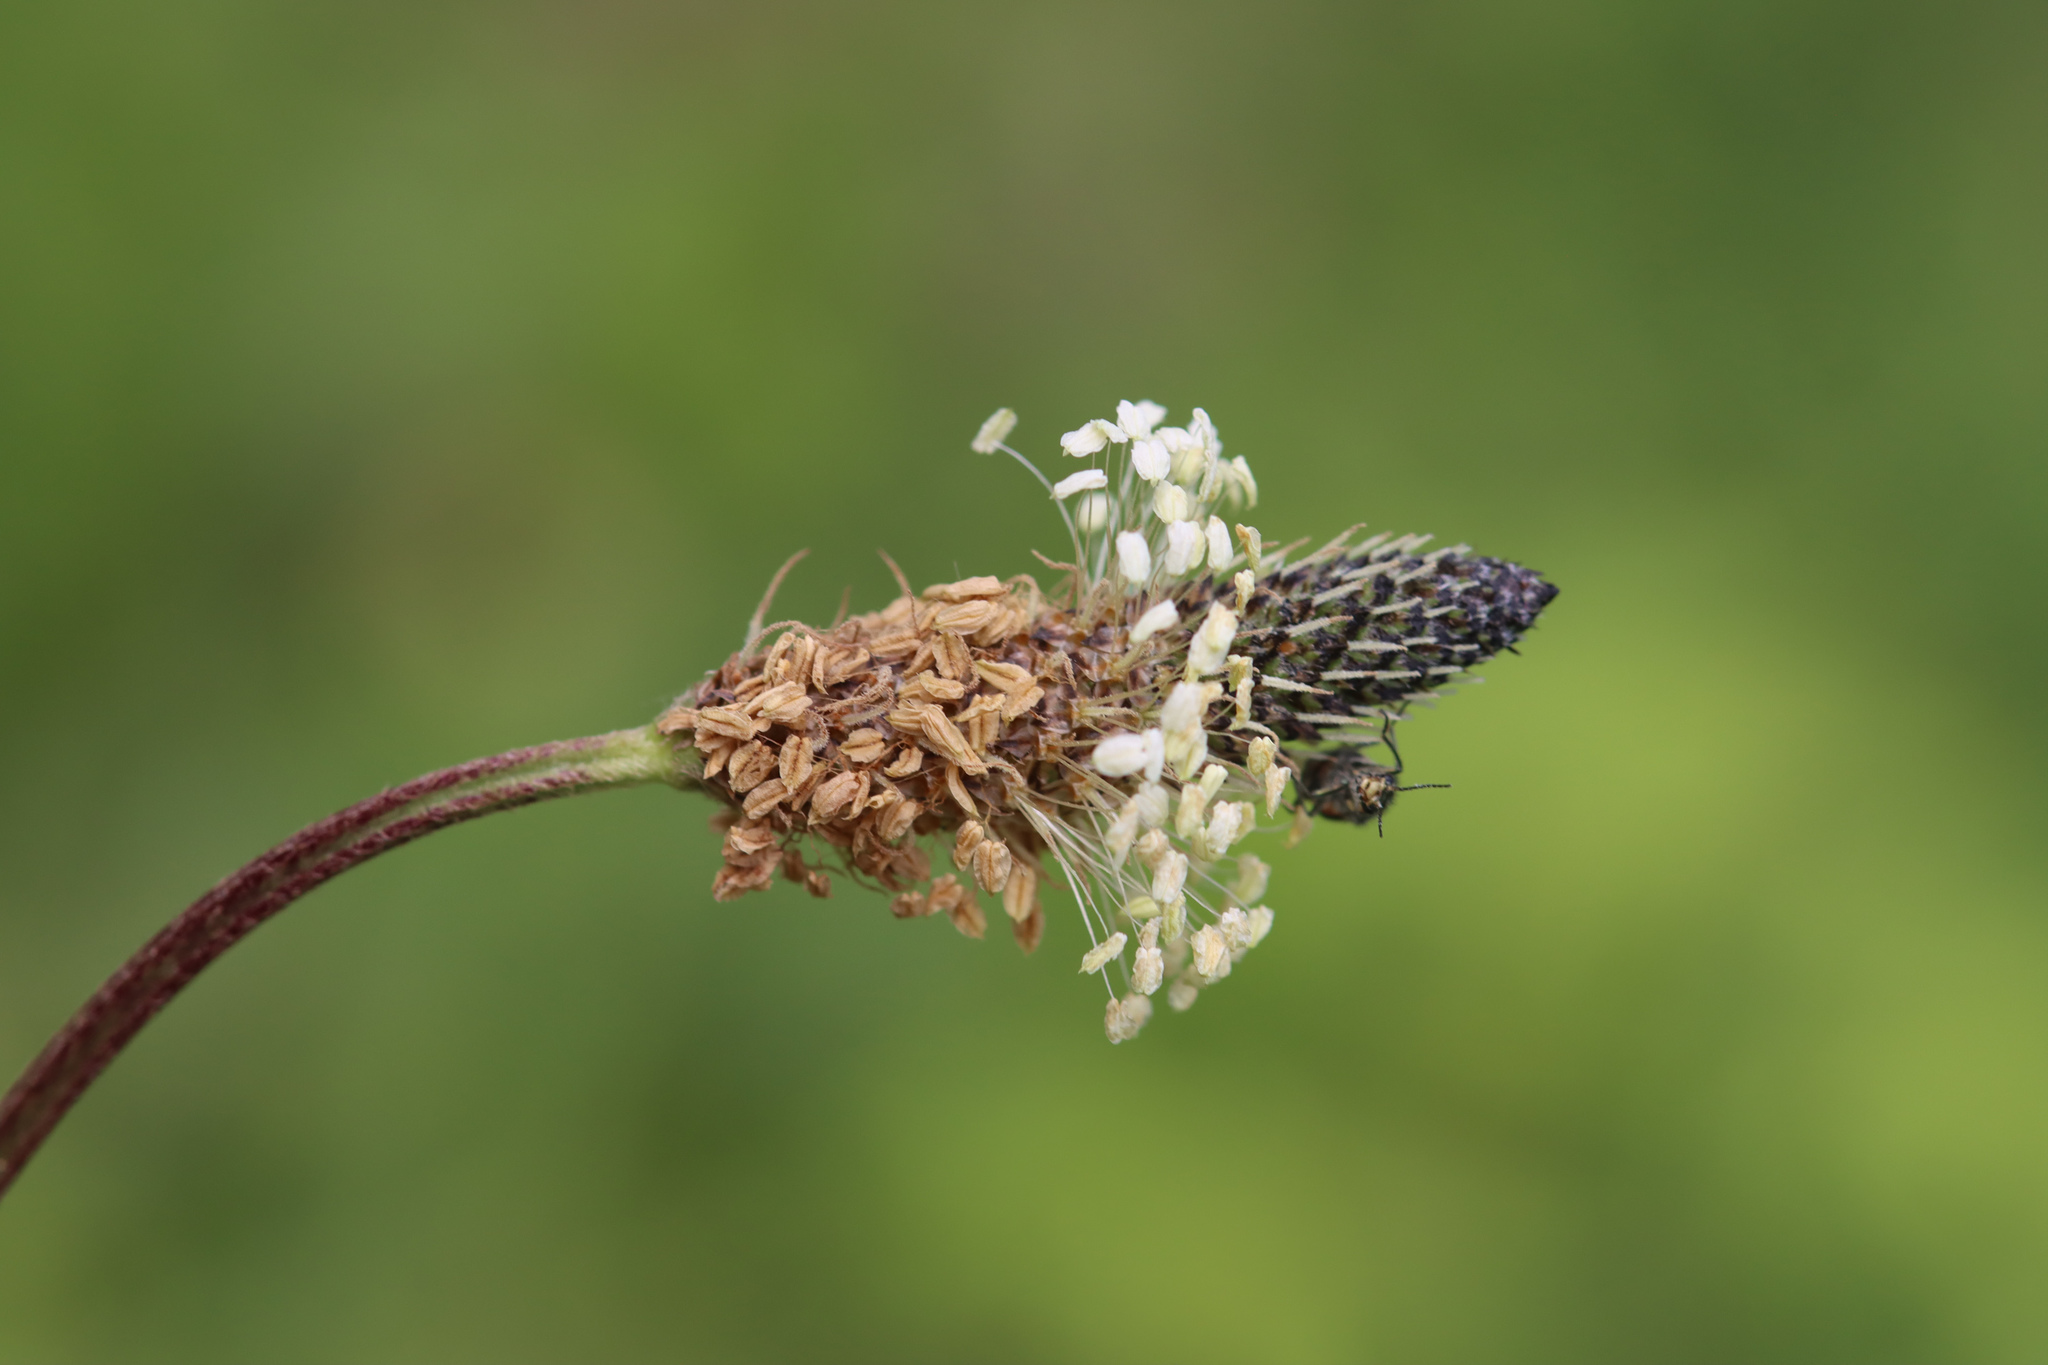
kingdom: Plantae
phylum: Tracheophyta
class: Magnoliopsida
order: Lamiales
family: Plantaginaceae
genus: Plantago
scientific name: Plantago lanceolata
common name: Ribwort plantain
